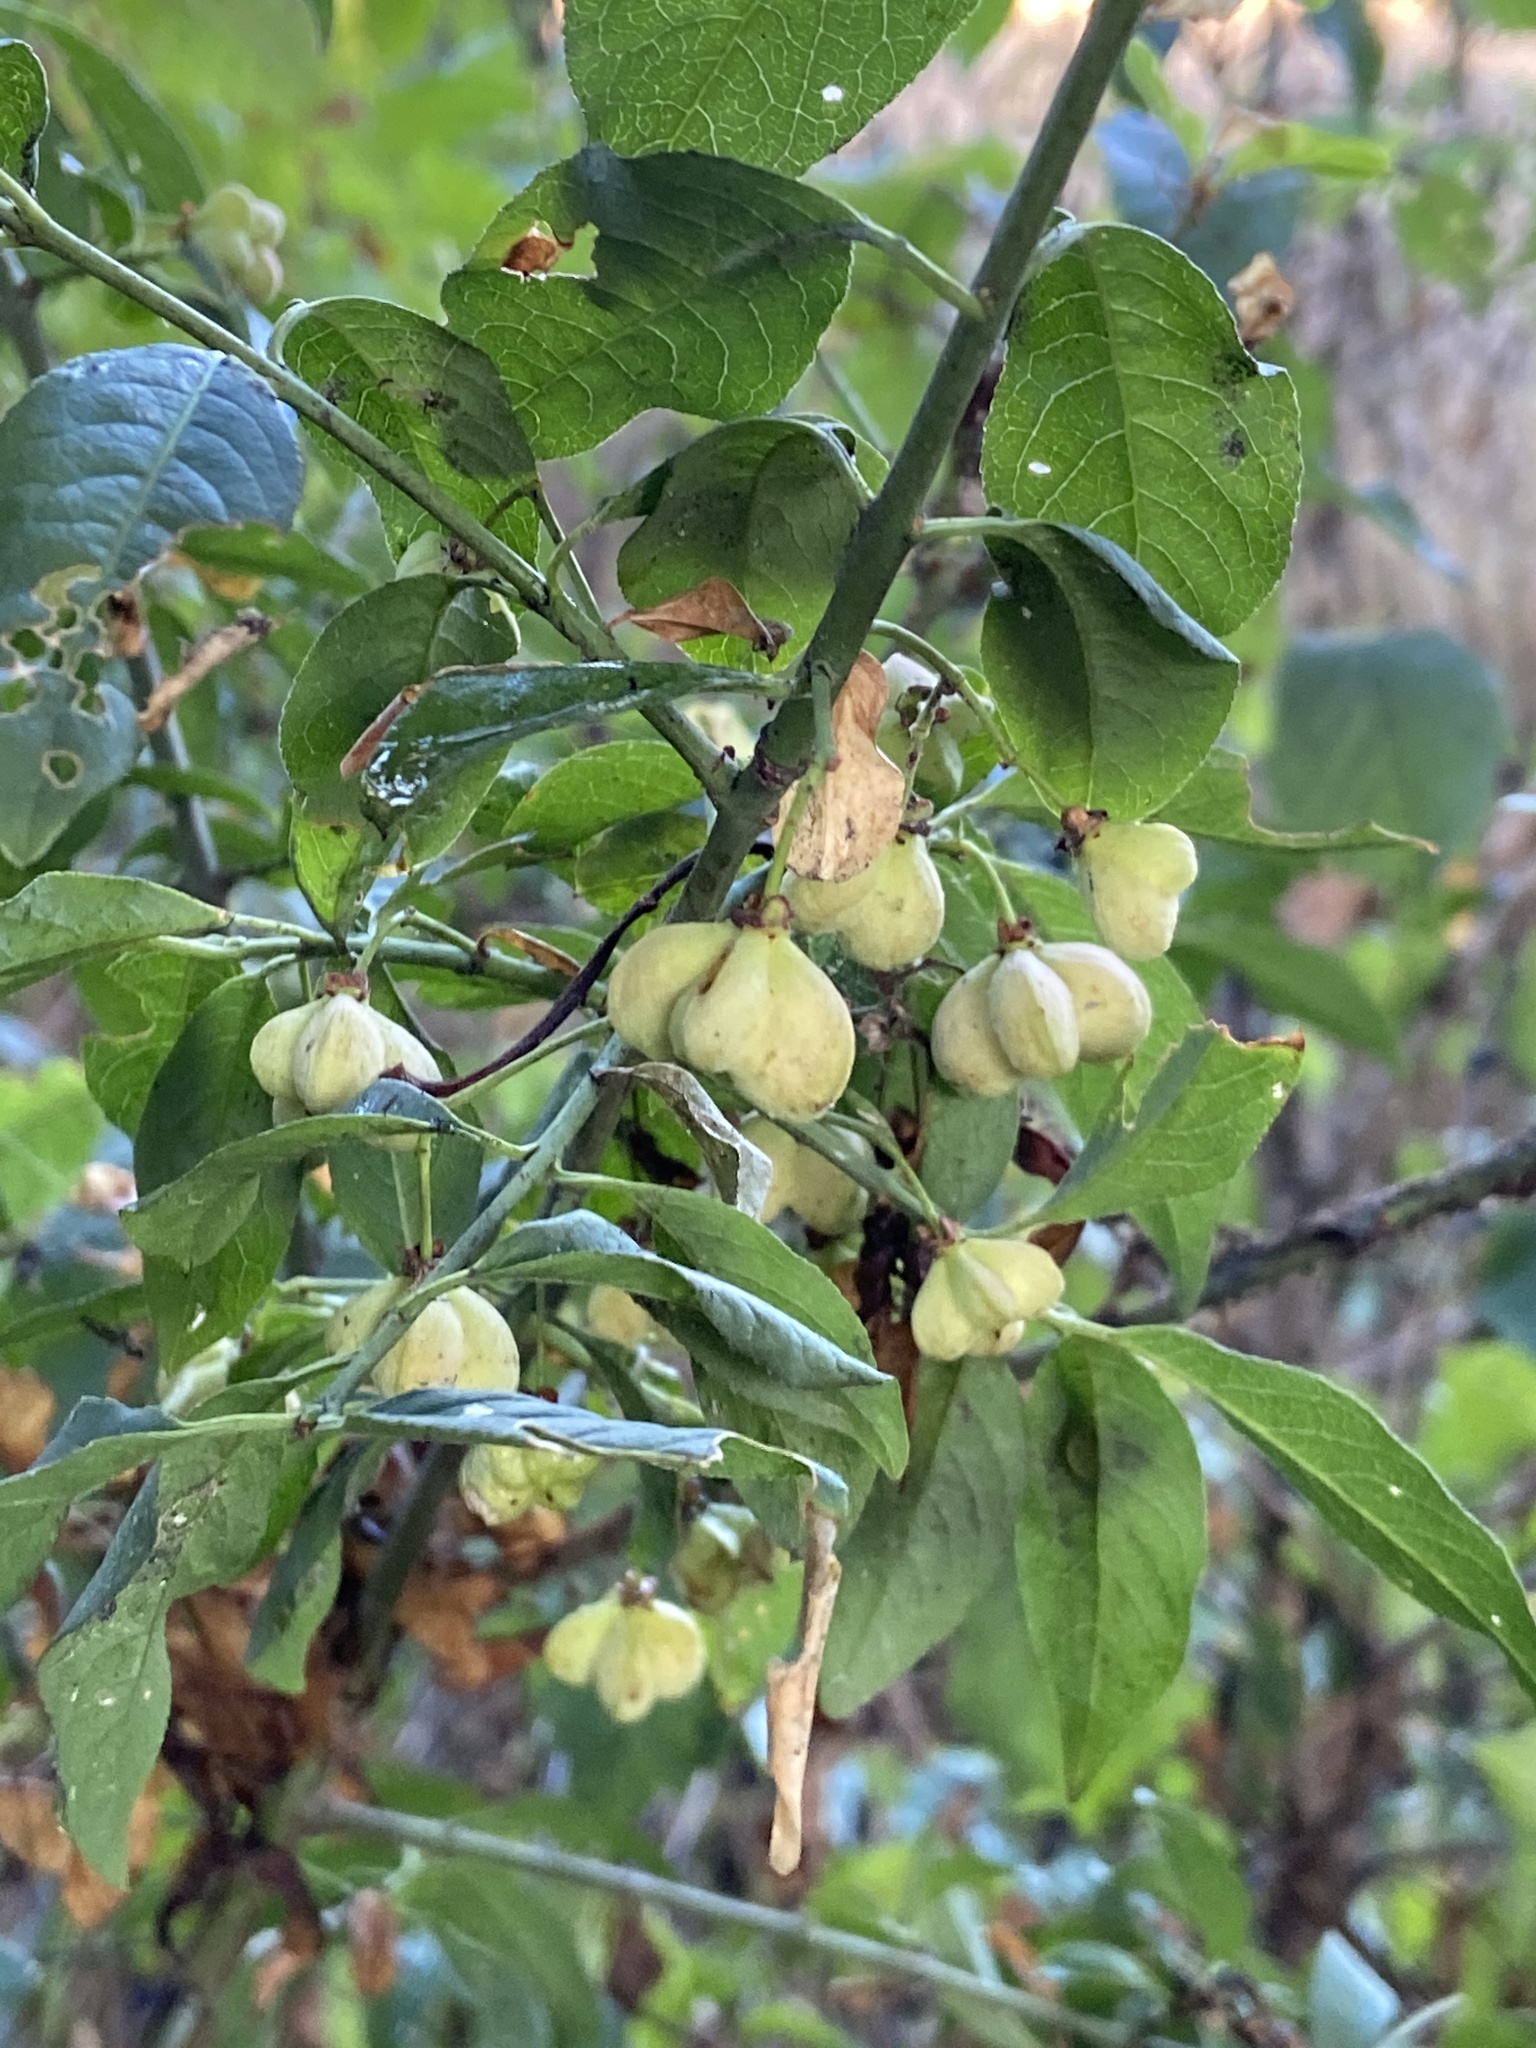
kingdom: Plantae
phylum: Tracheophyta
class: Magnoliopsida
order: Celastrales
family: Celastraceae
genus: Euonymus
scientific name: Euonymus europaeus
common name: Spindle
